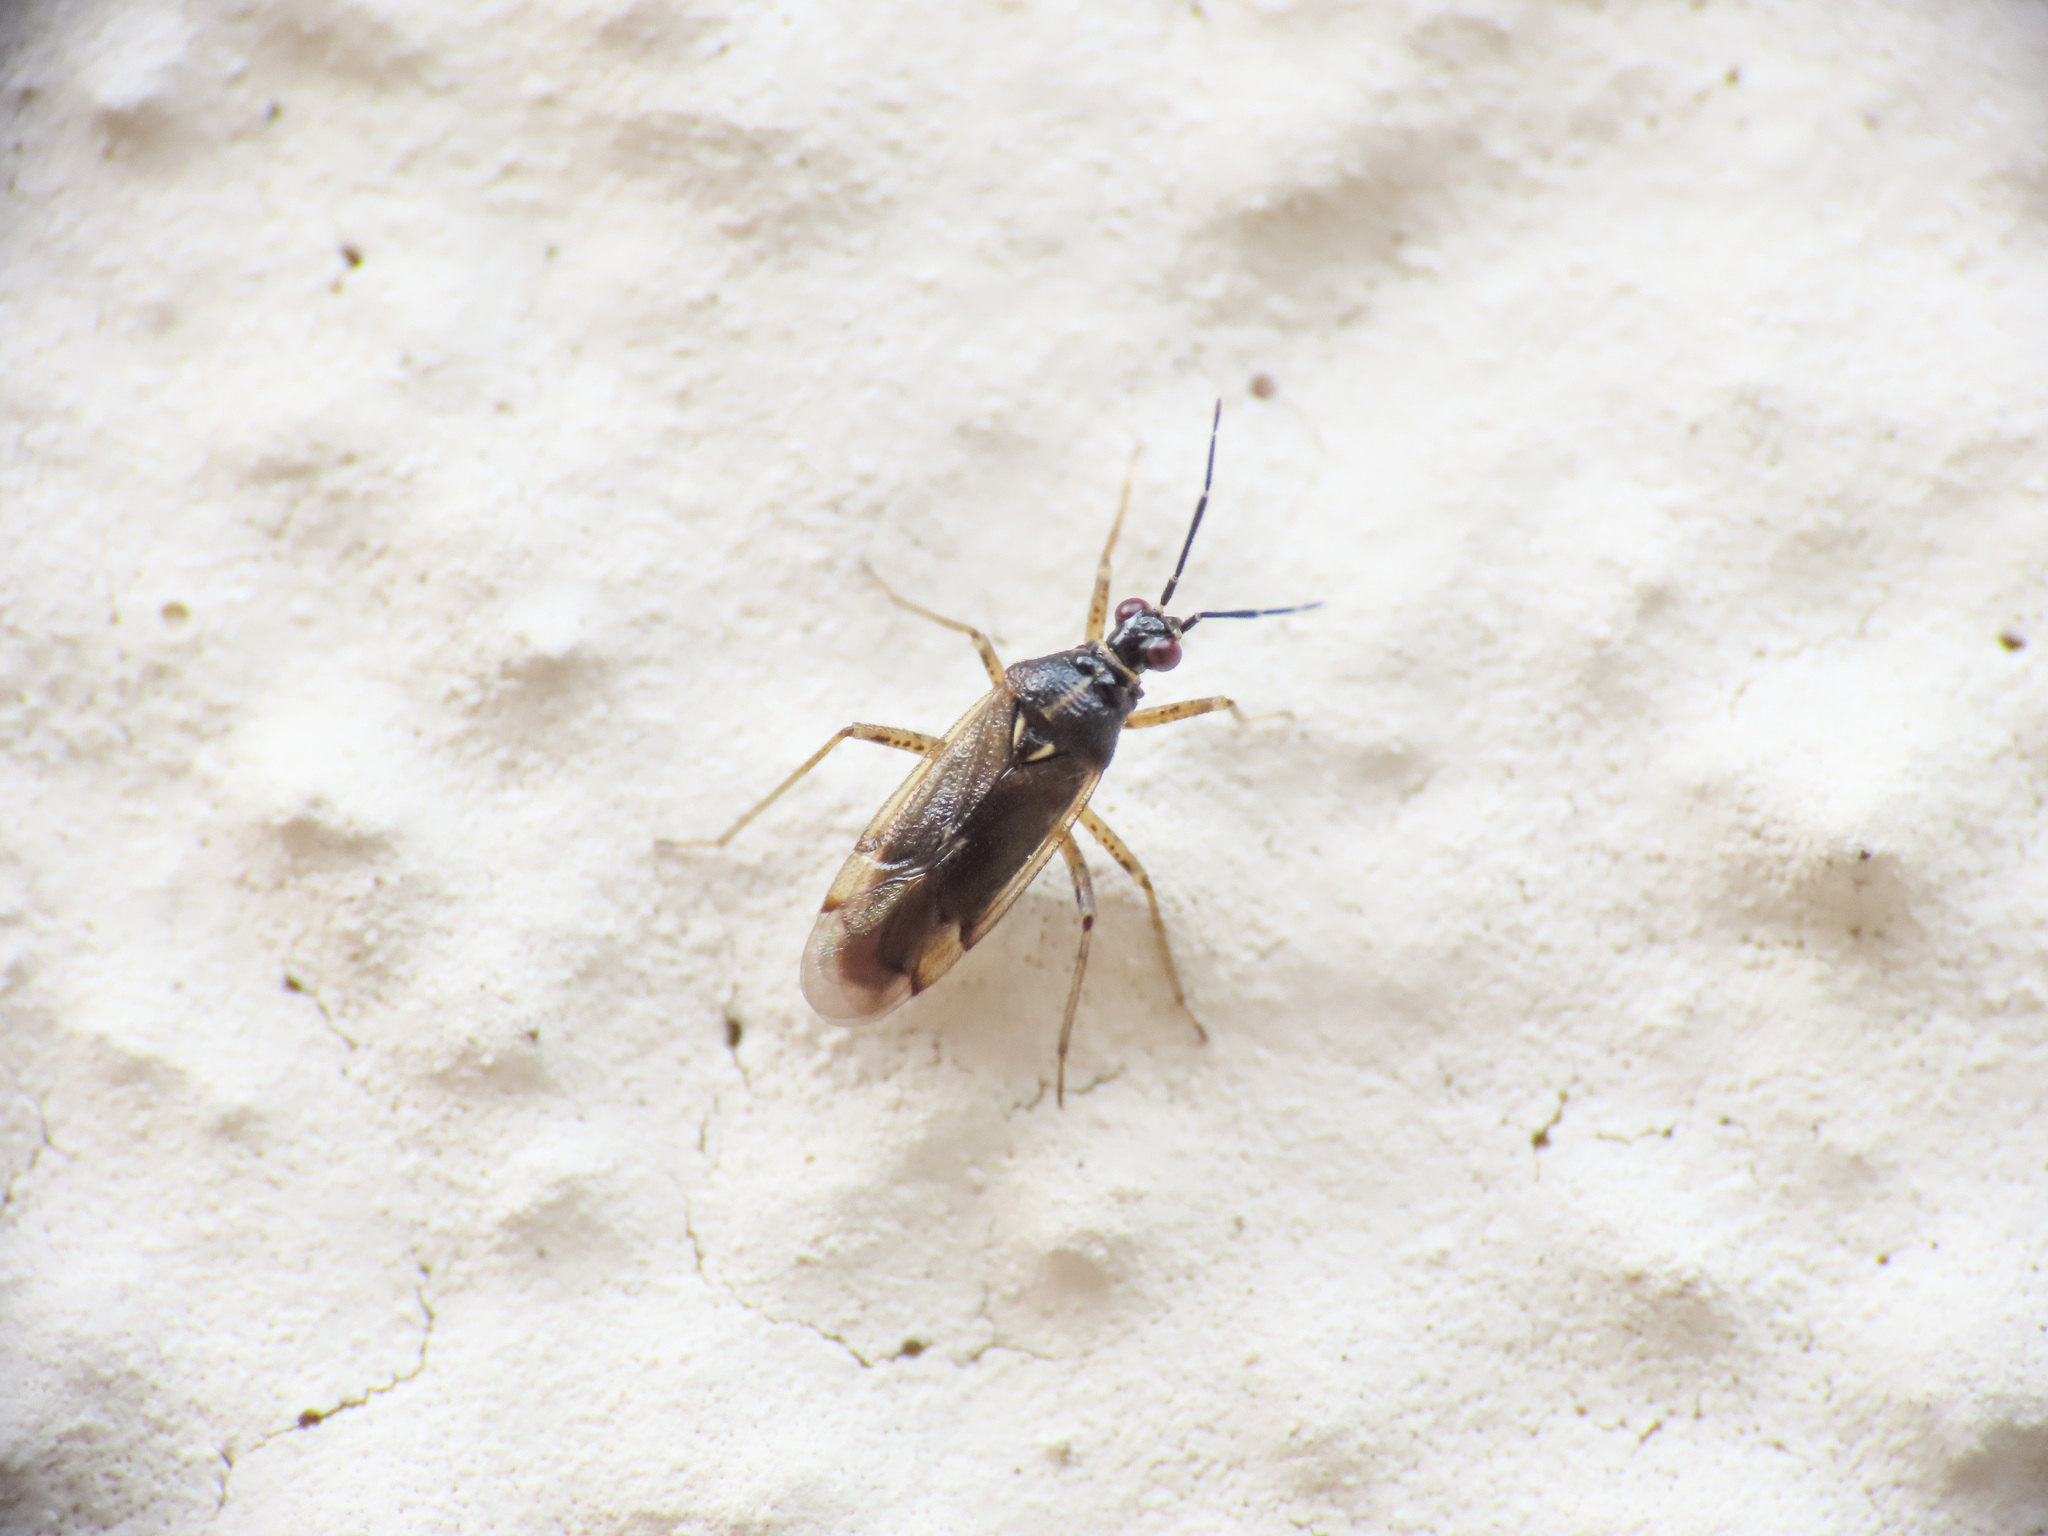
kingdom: Animalia
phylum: Arthropoda
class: Insecta
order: Hemiptera
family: Miridae
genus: Dicyphus
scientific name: Dicyphus globulifer
